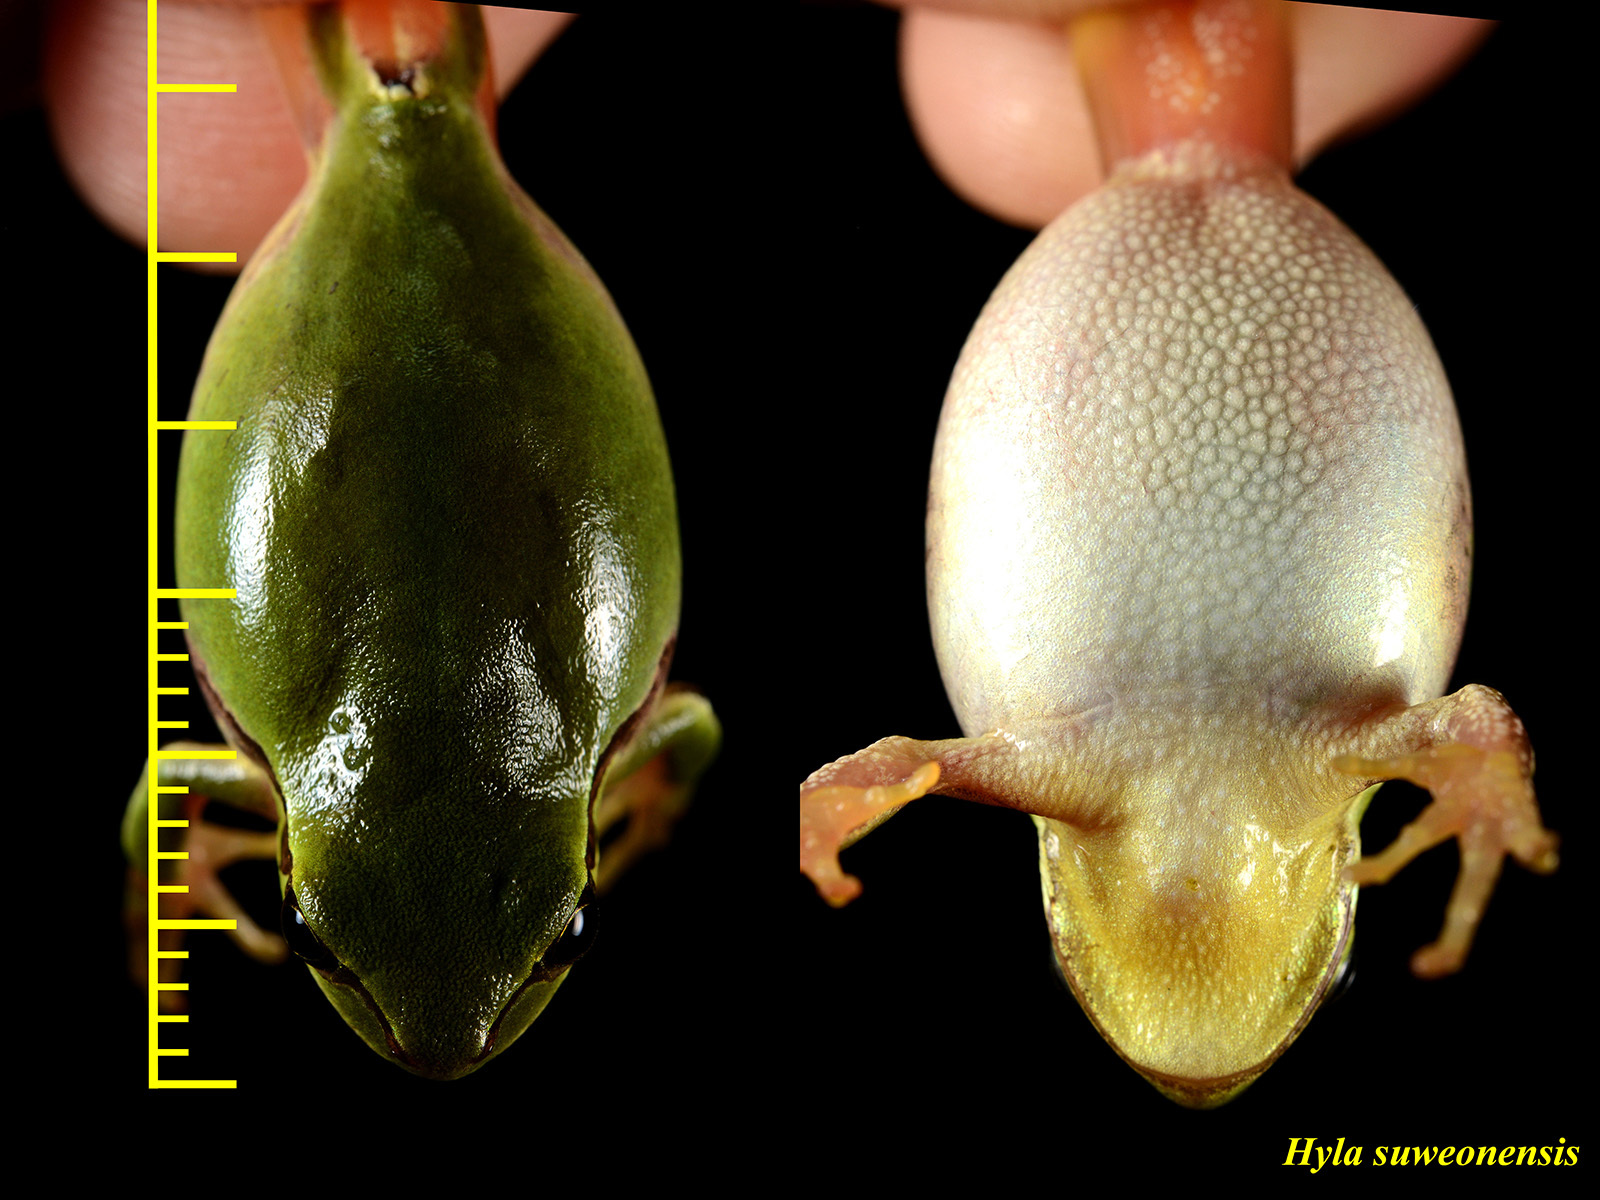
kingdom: Animalia
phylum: Chordata
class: Amphibia
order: Anura
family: Hylidae
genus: Dryophytes
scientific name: Dryophytes immaculatus
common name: North china treefrog
